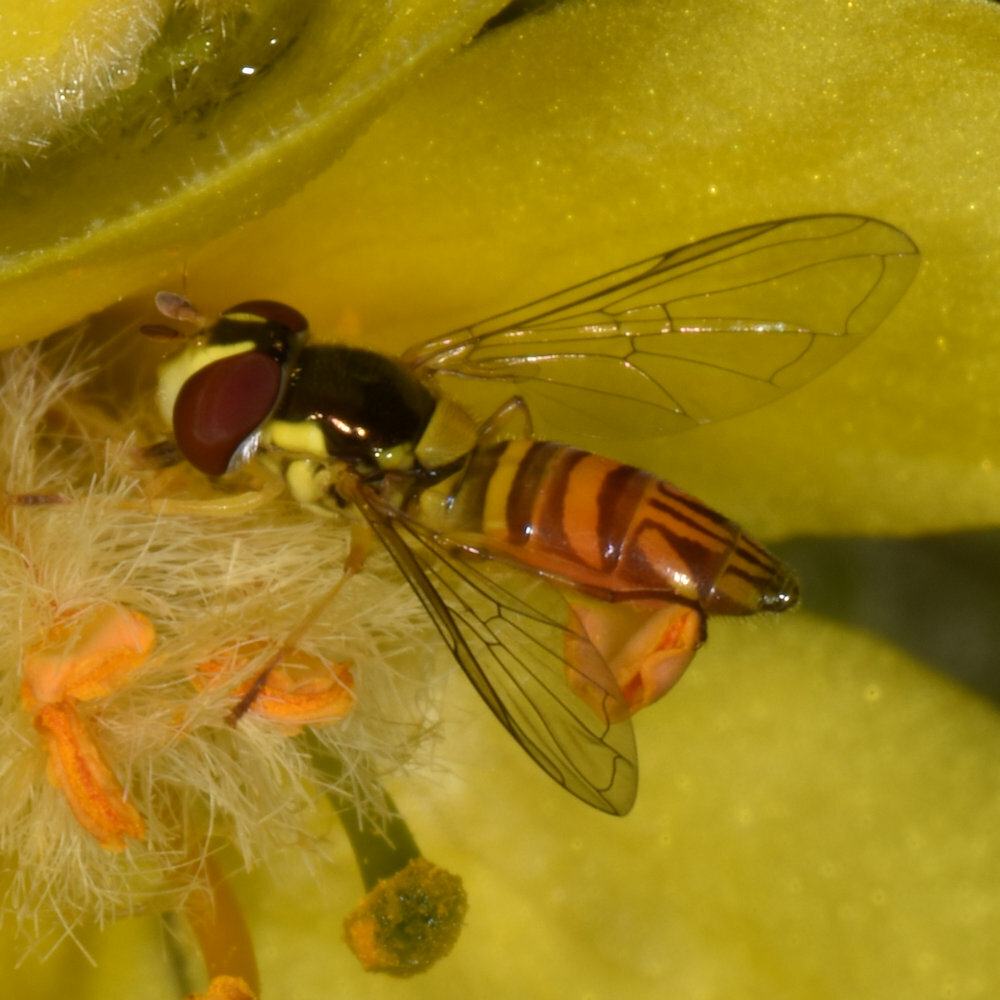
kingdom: Animalia
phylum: Arthropoda
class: Insecta
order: Diptera
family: Syrphidae
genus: Allograpta
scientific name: Allograpta obliqua
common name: Common oblique syrphid
